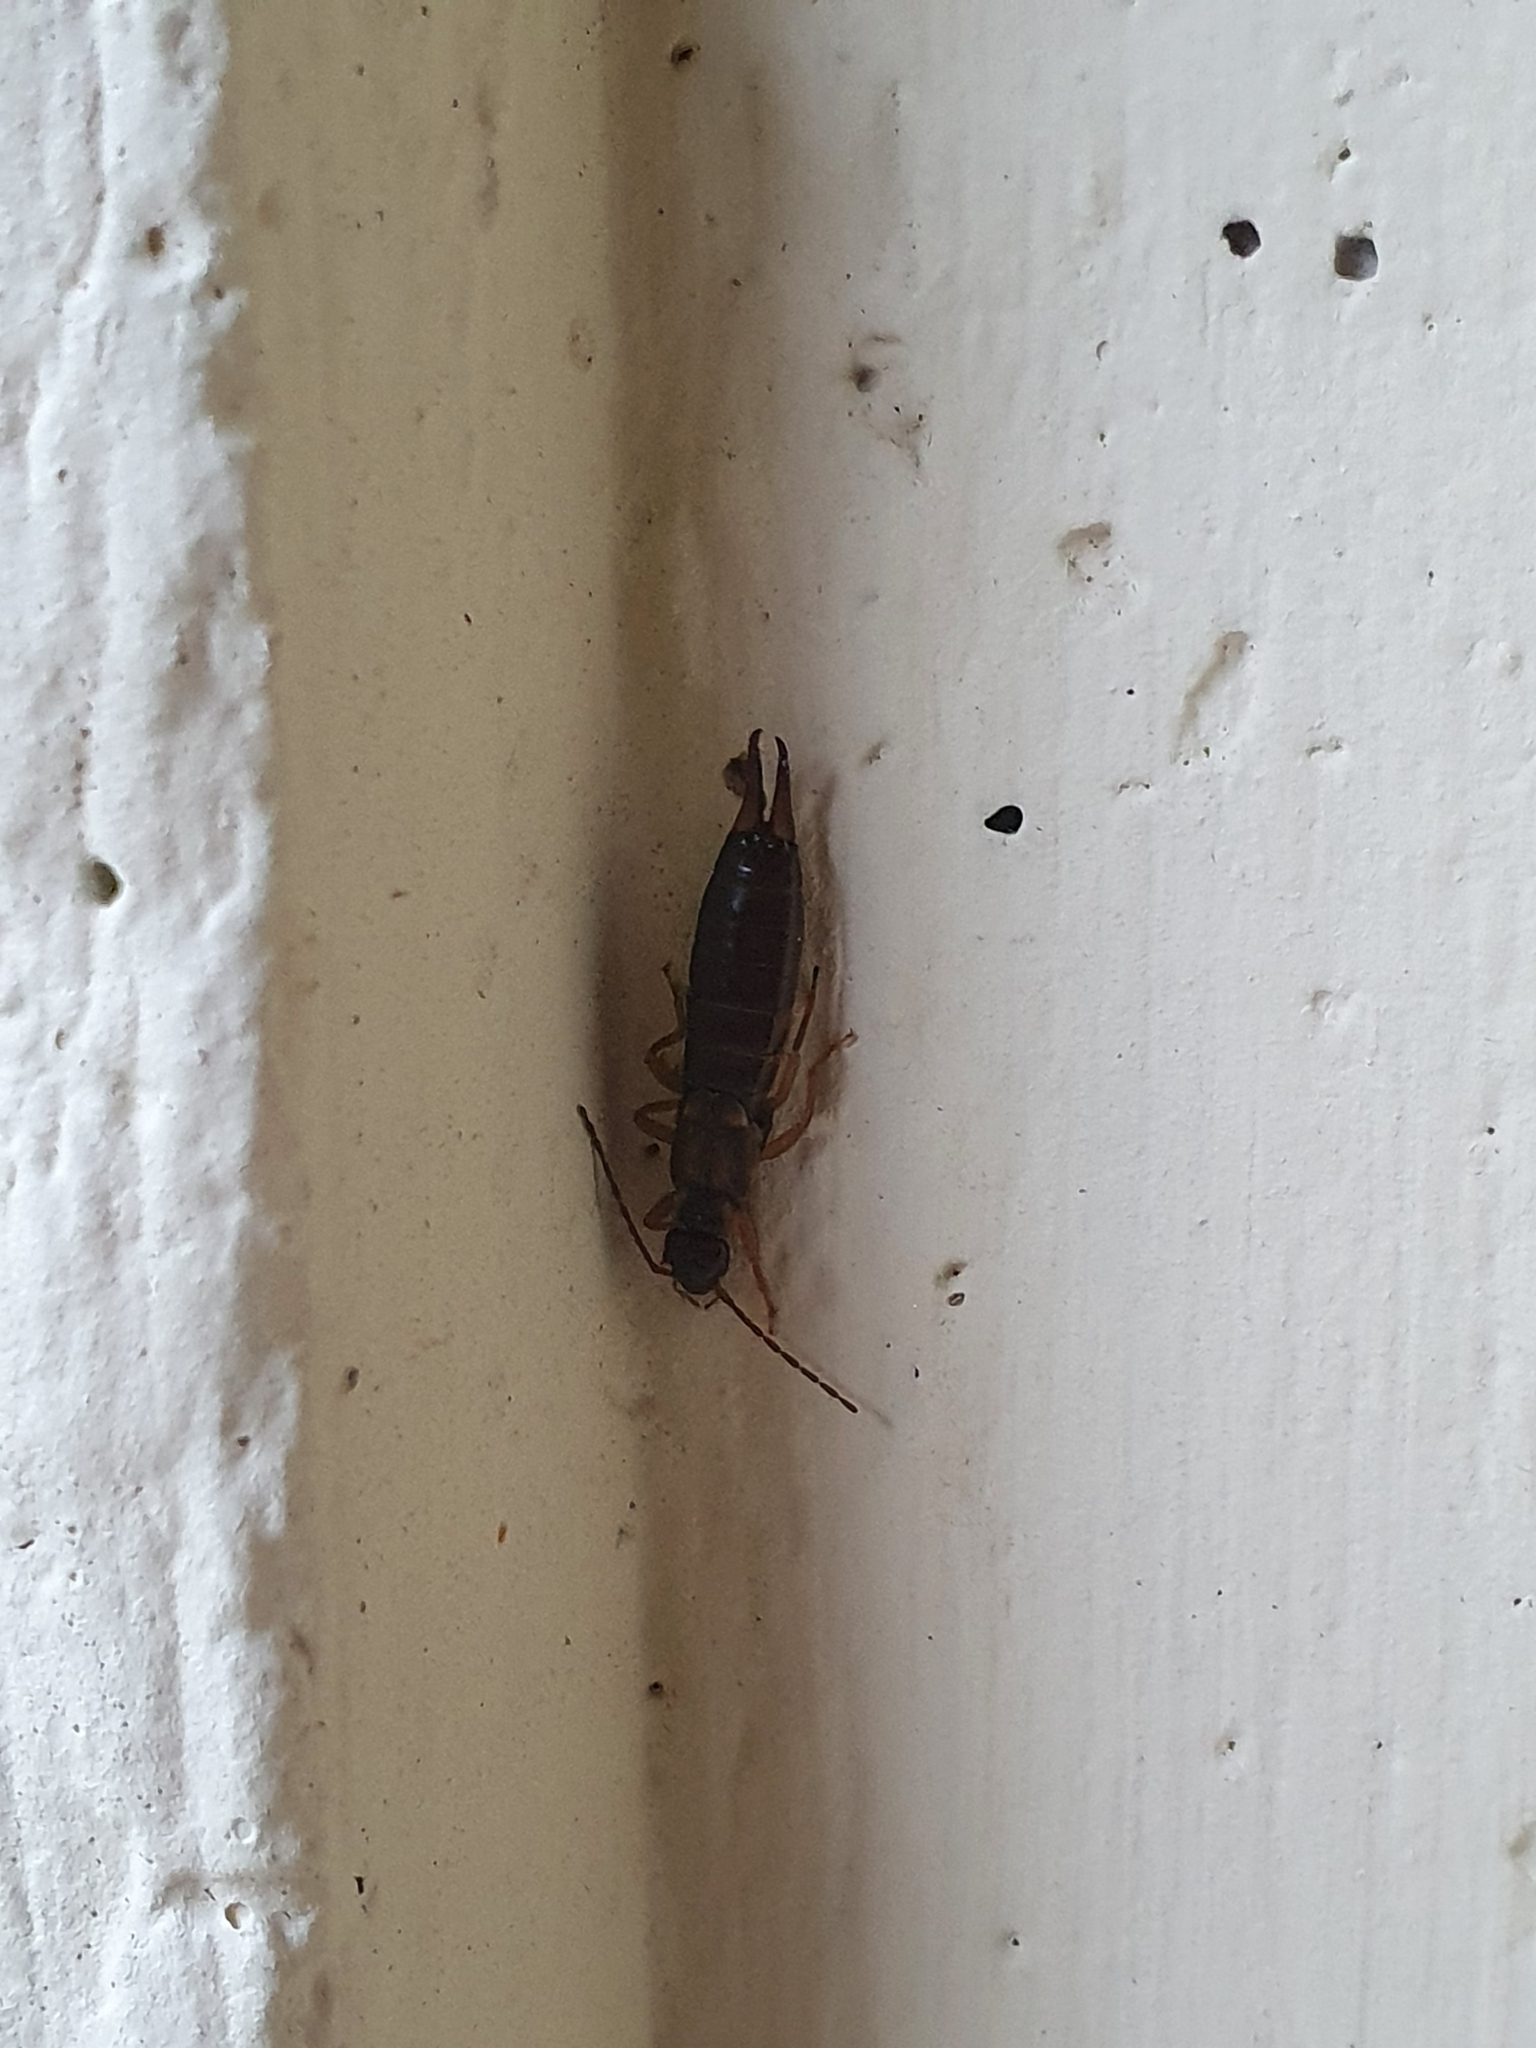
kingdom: Animalia
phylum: Arthropoda
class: Insecta
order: Dermaptera
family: Forficulidae
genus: Forficula
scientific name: Forficula
